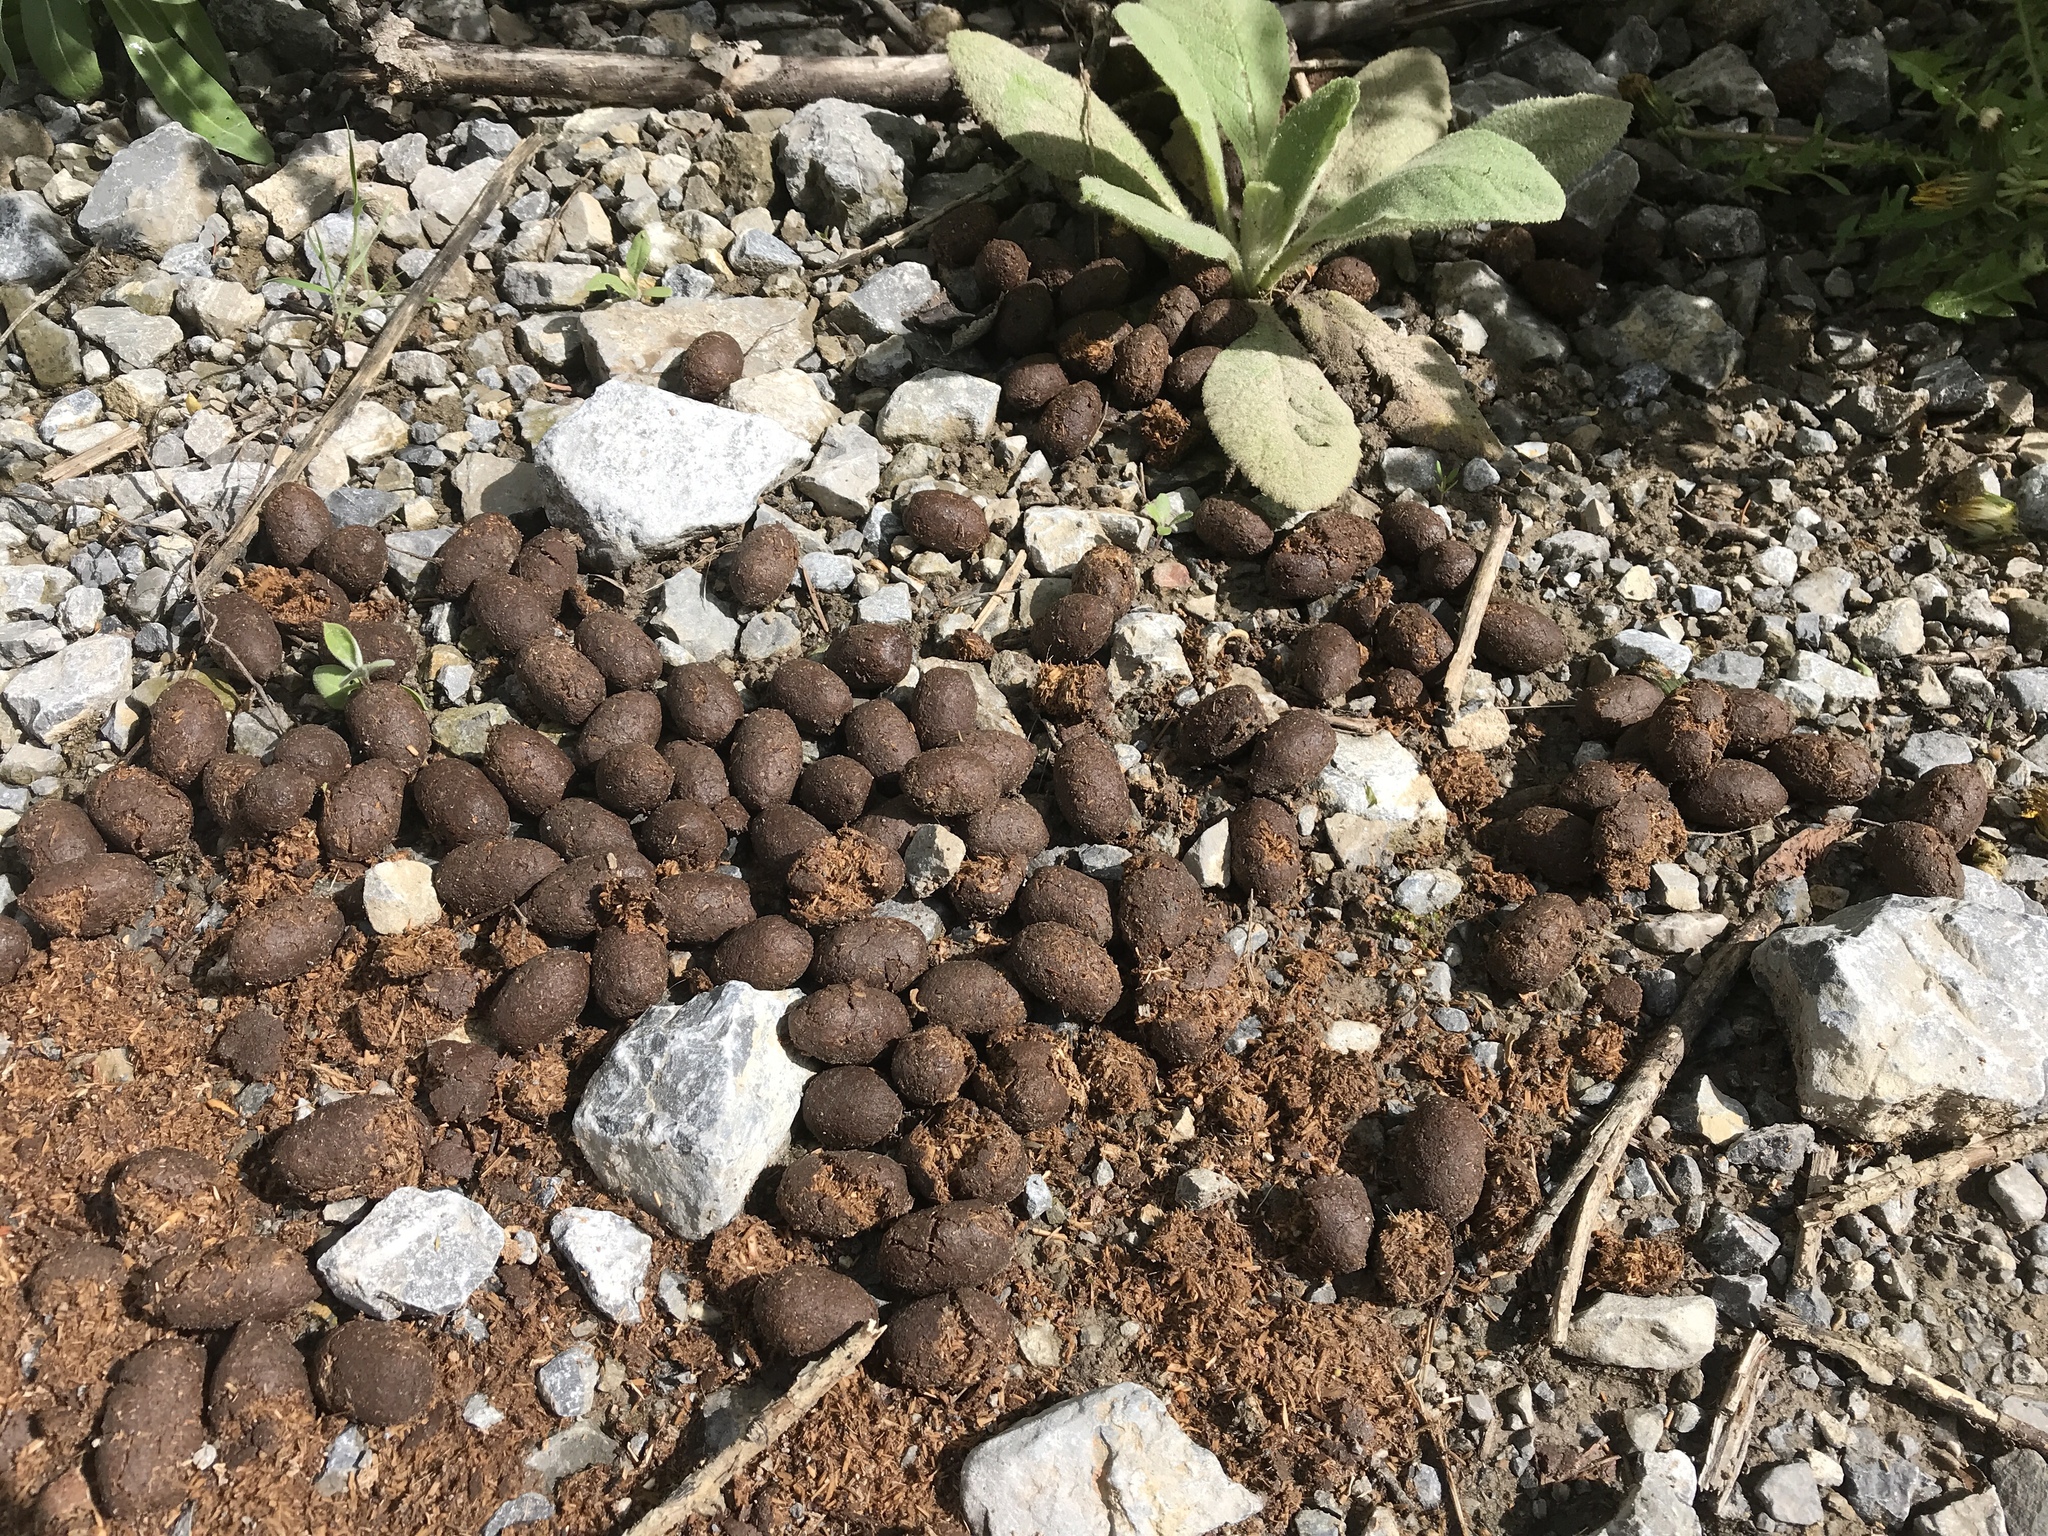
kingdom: Animalia
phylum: Chordata
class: Mammalia
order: Artiodactyla
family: Cervidae
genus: Alces
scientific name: Alces alces
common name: Moose
